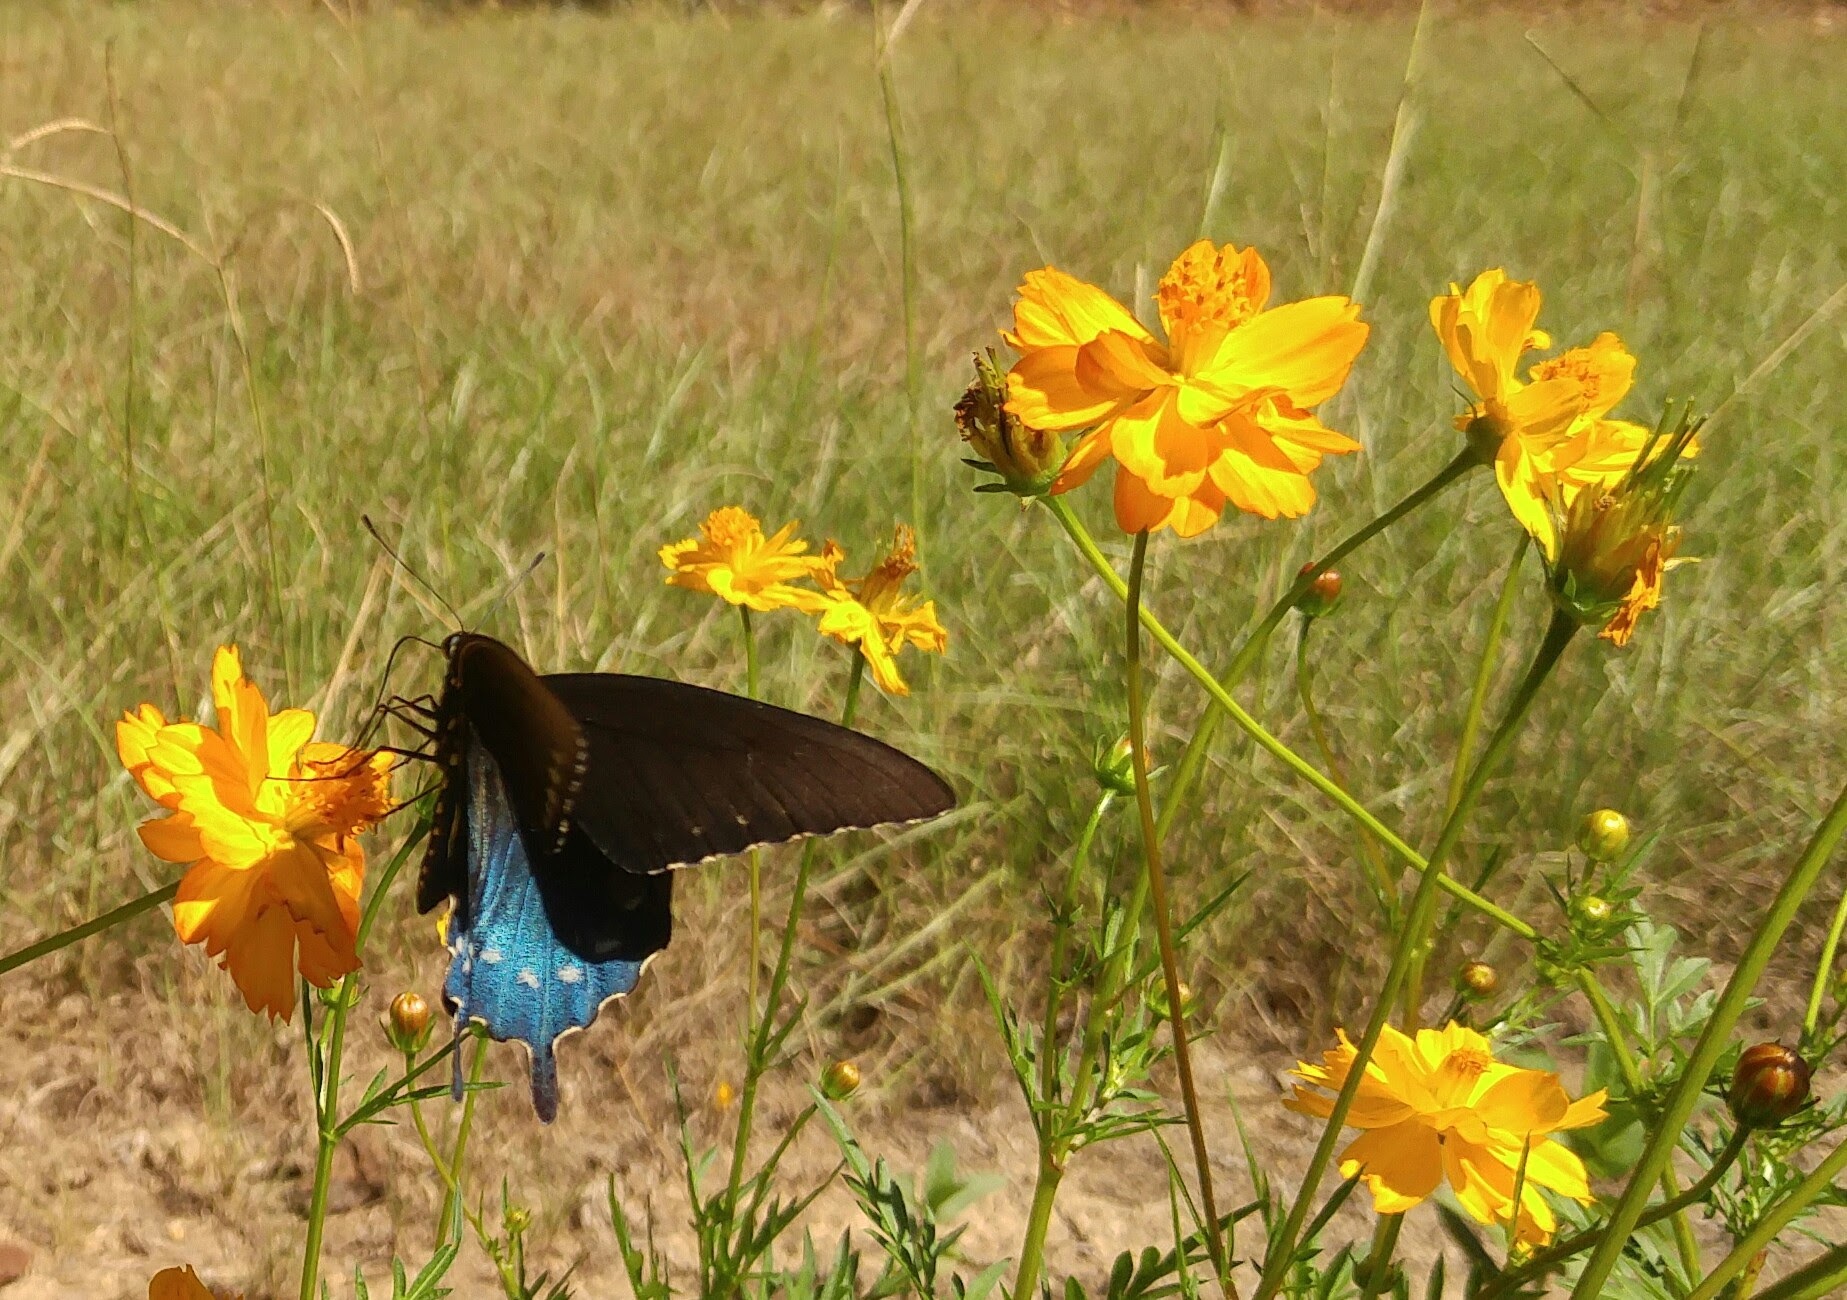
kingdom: Animalia
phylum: Arthropoda
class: Insecta
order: Lepidoptera
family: Papilionidae
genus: Battus
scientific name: Battus philenor
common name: Pipevine swallowtail
